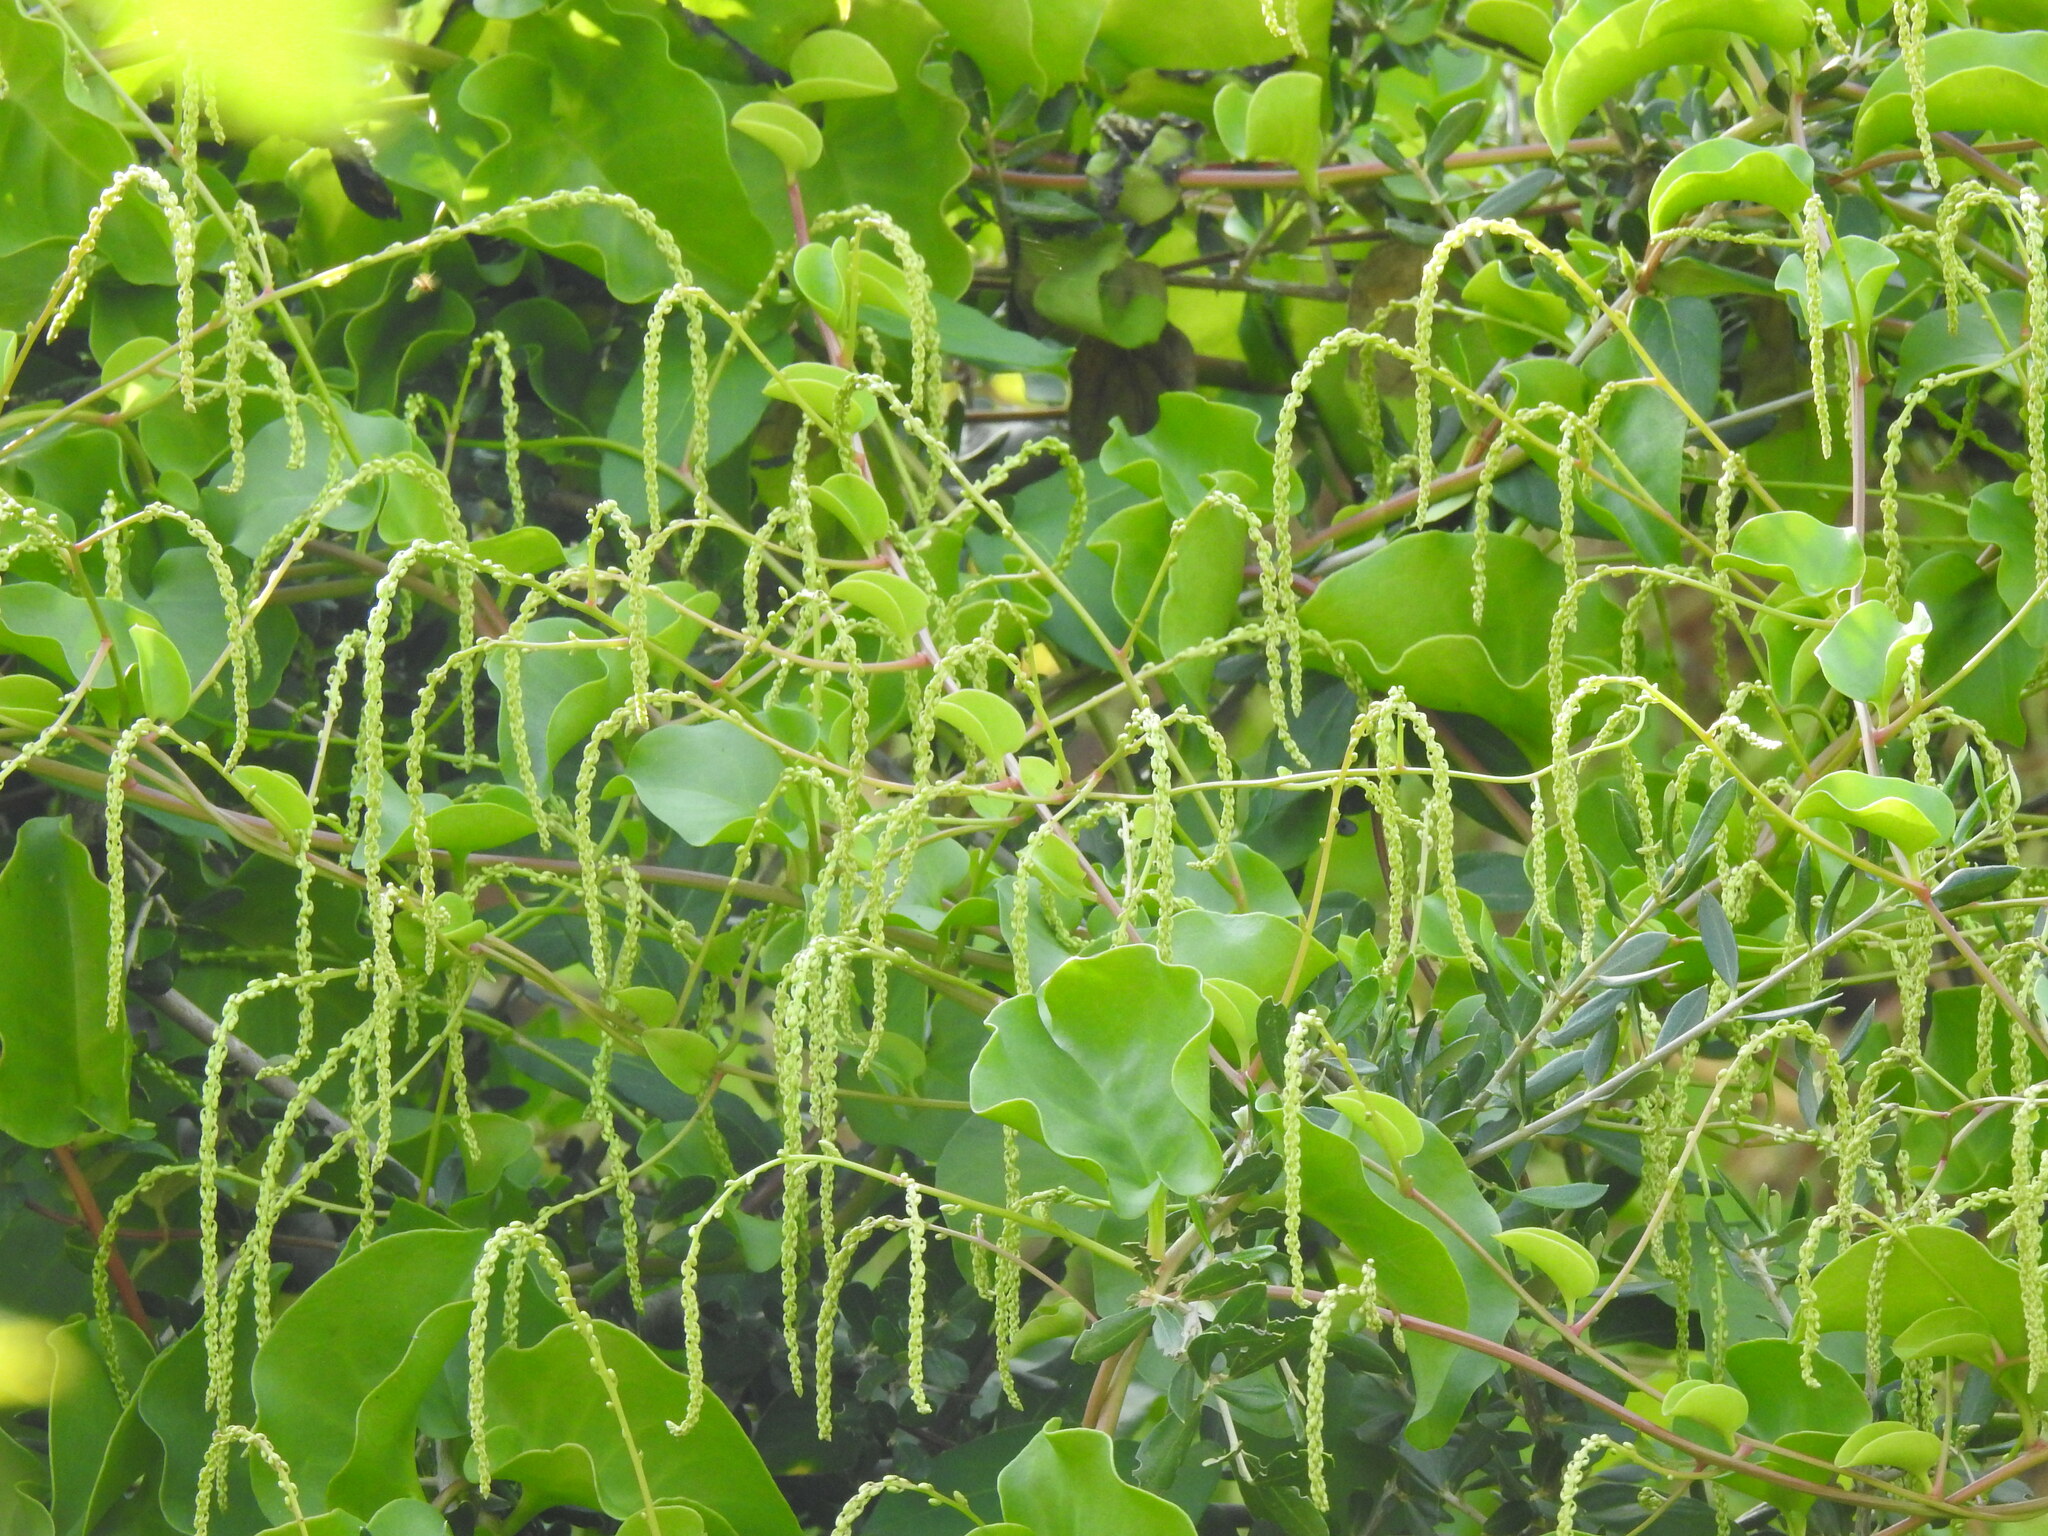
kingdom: Plantae
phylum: Tracheophyta
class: Magnoliopsida
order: Caryophyllales
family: Basellaceae
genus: Anredera
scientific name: Anredera cordifolia
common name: Heartleaf madeiravine
